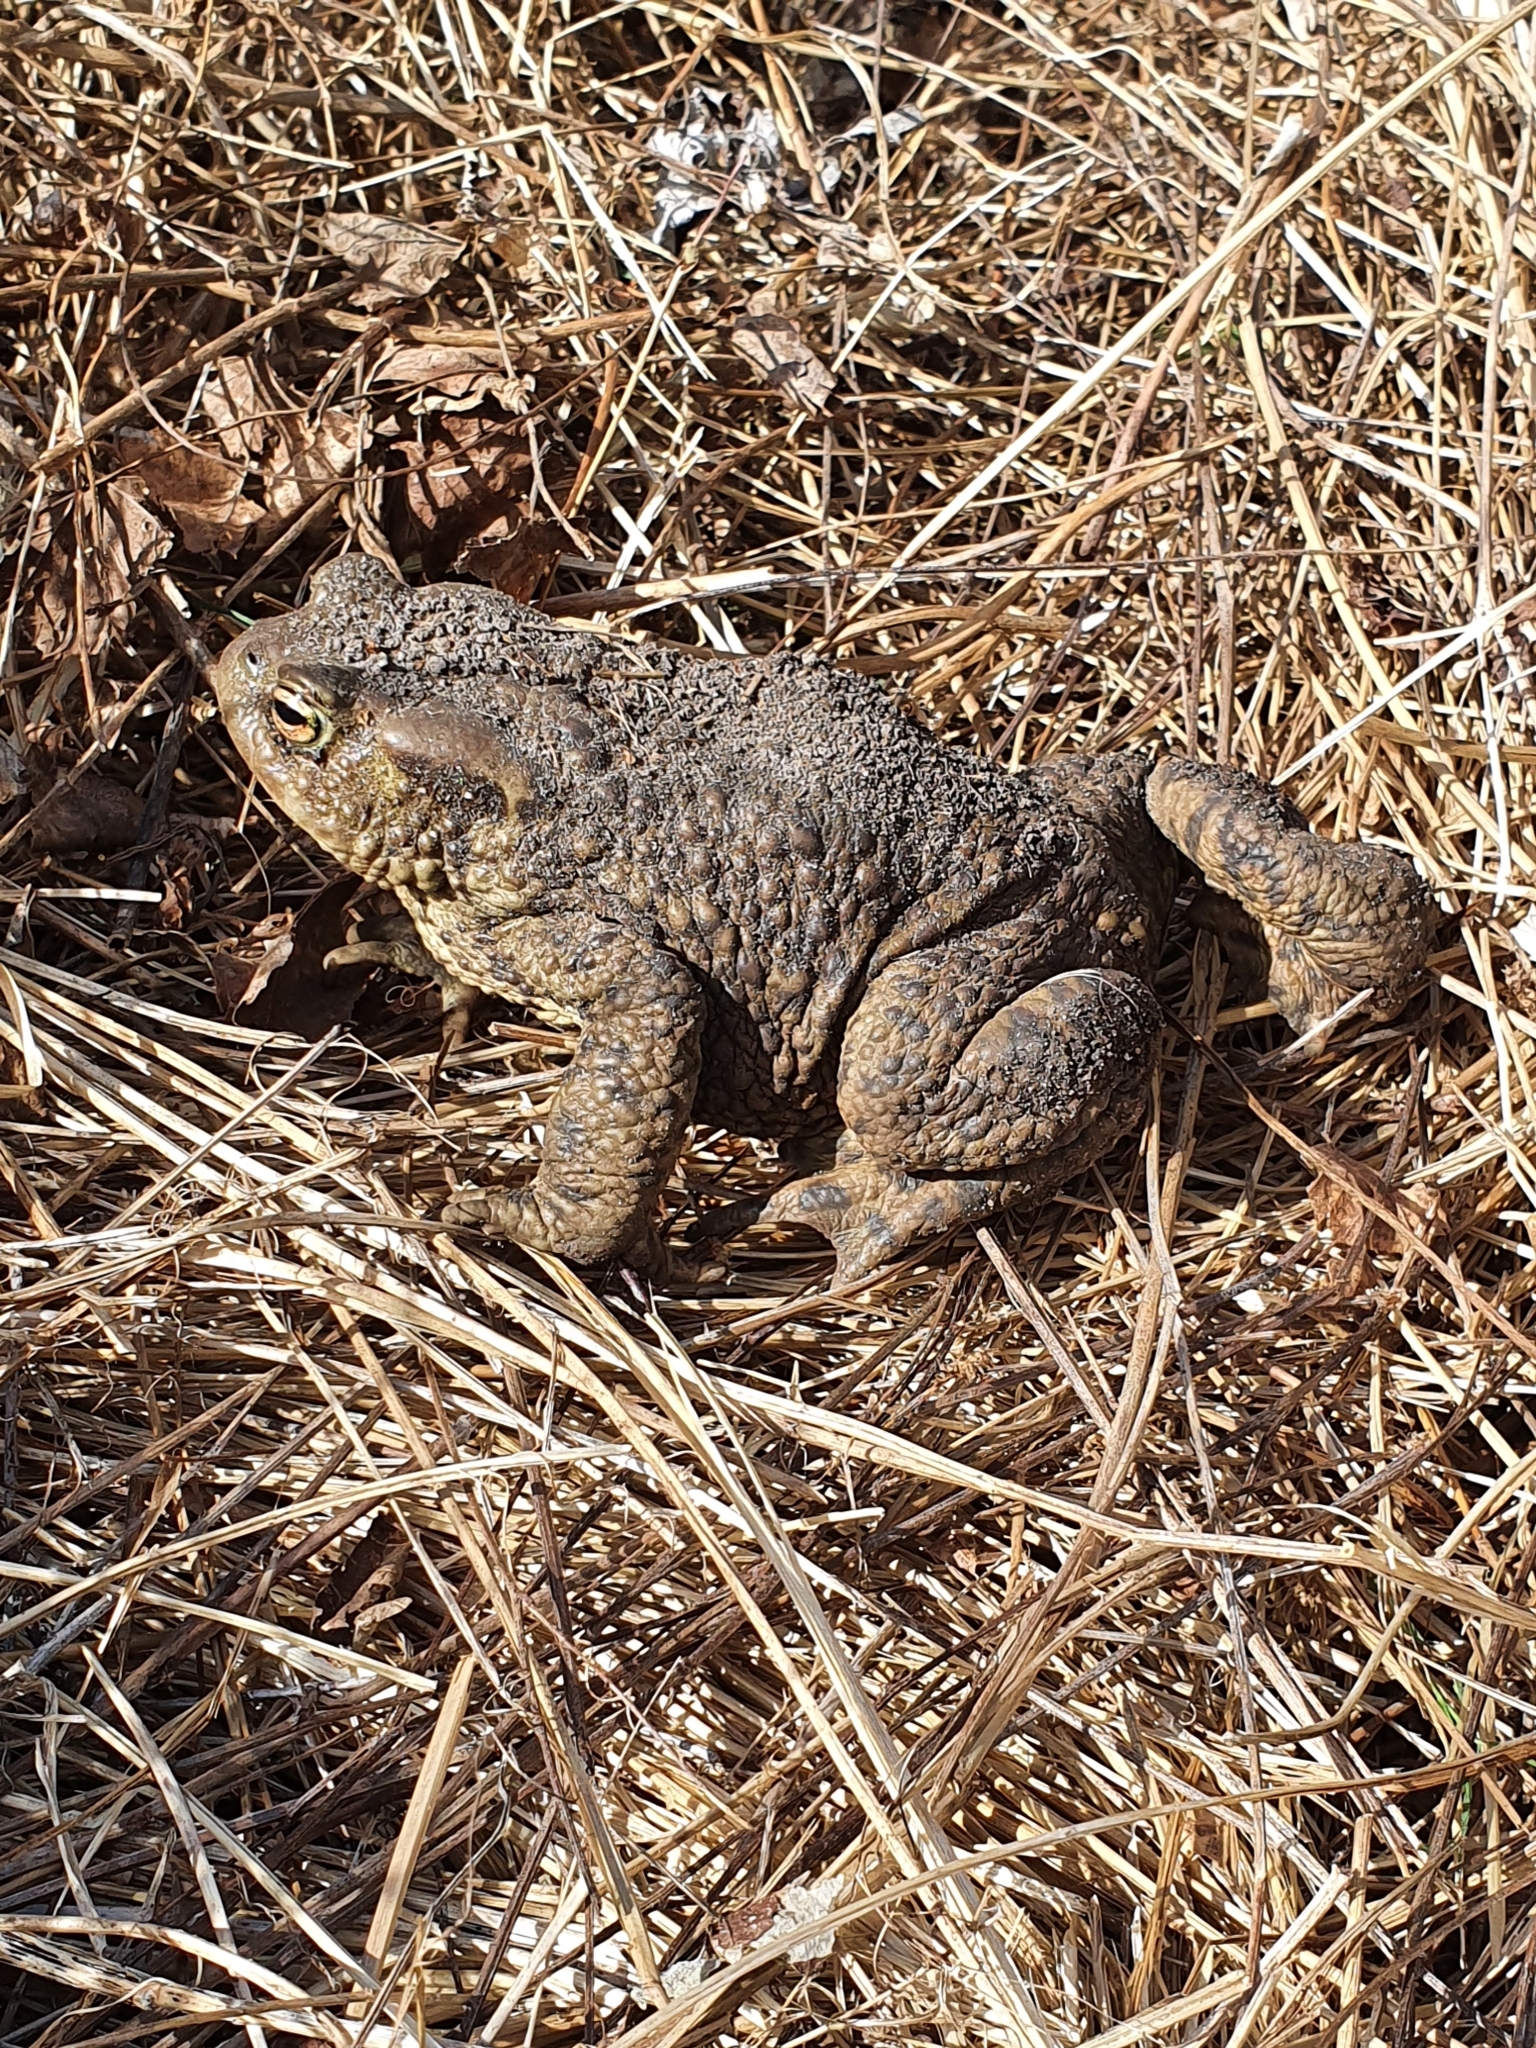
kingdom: Animalia
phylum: Chordata
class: Amphibia
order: Anura
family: Bufonidae
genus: Bufo
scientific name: Bufo bufo
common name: Common toad
